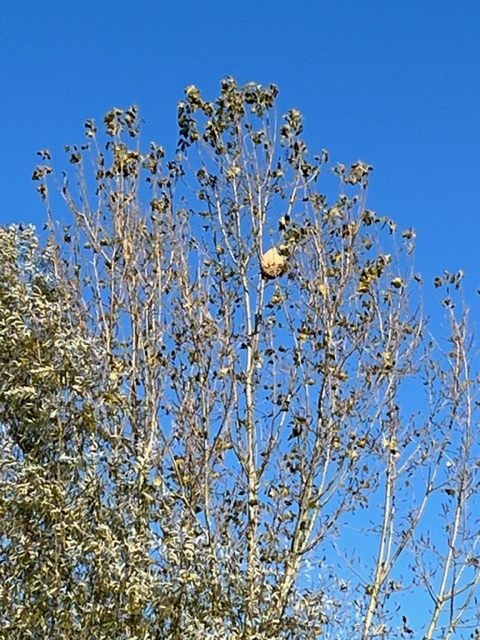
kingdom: Animalia
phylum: Arthropoda
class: Insecta
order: Hymenoptera
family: Vespidae
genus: Vespa
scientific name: Vespa velutina
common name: Asian hornet
